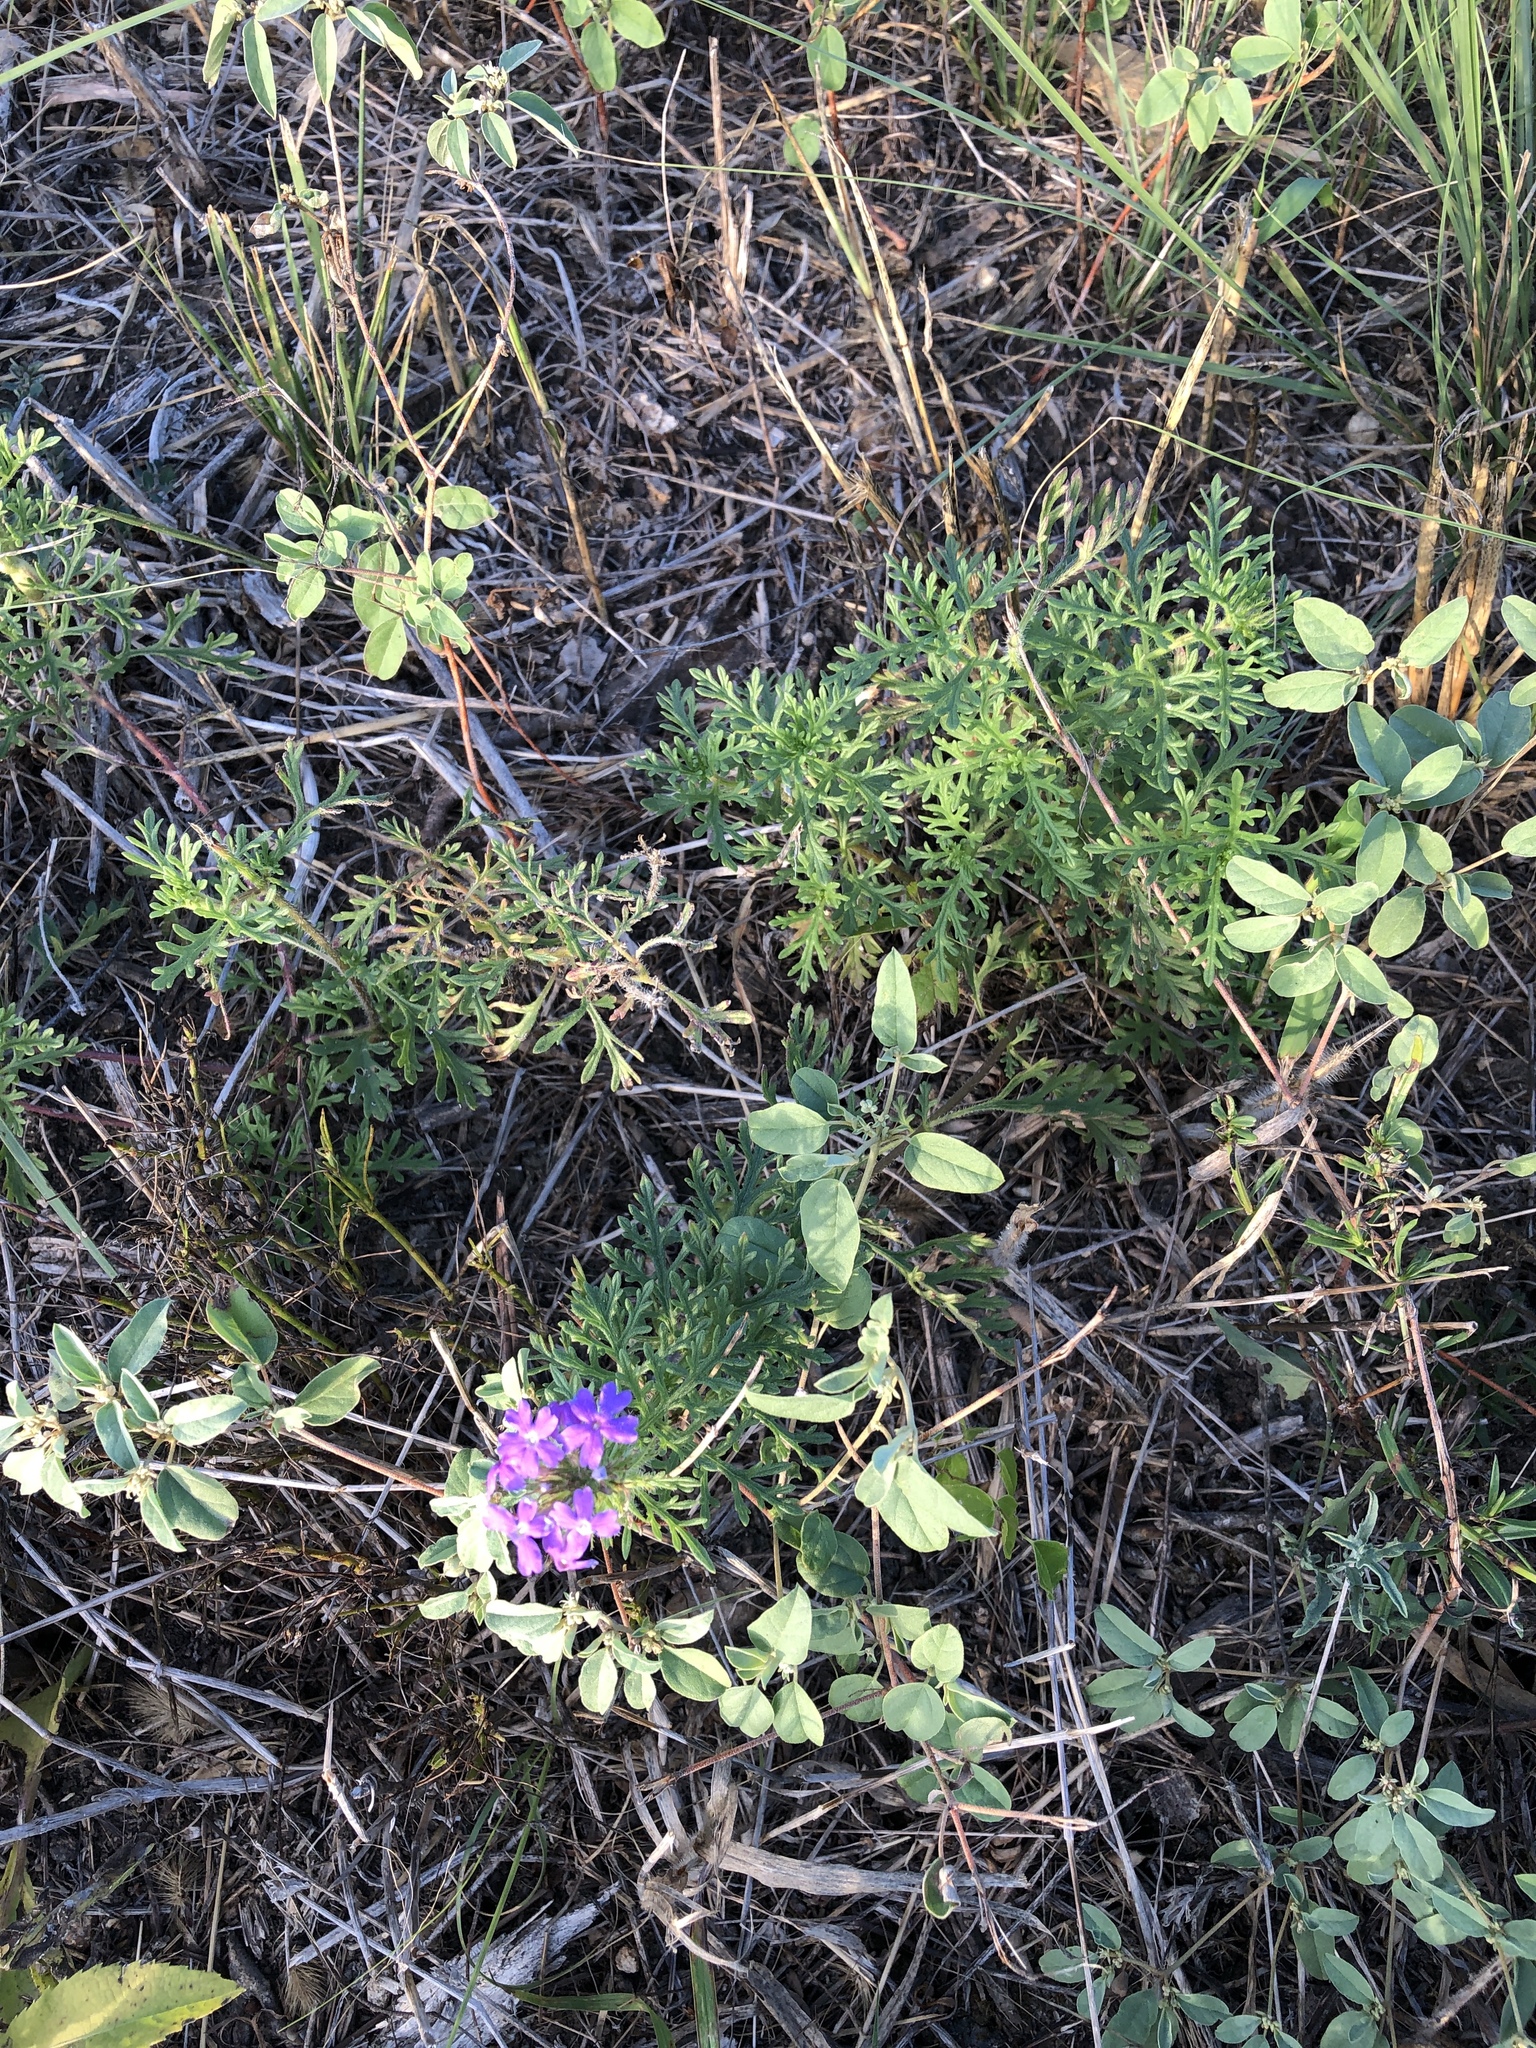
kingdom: Plantae
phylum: Tracheophyta
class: Magnoliopsida
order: Lamiales
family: Verbenaceae
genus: Verbena
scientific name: Verbena bipinnatifida
